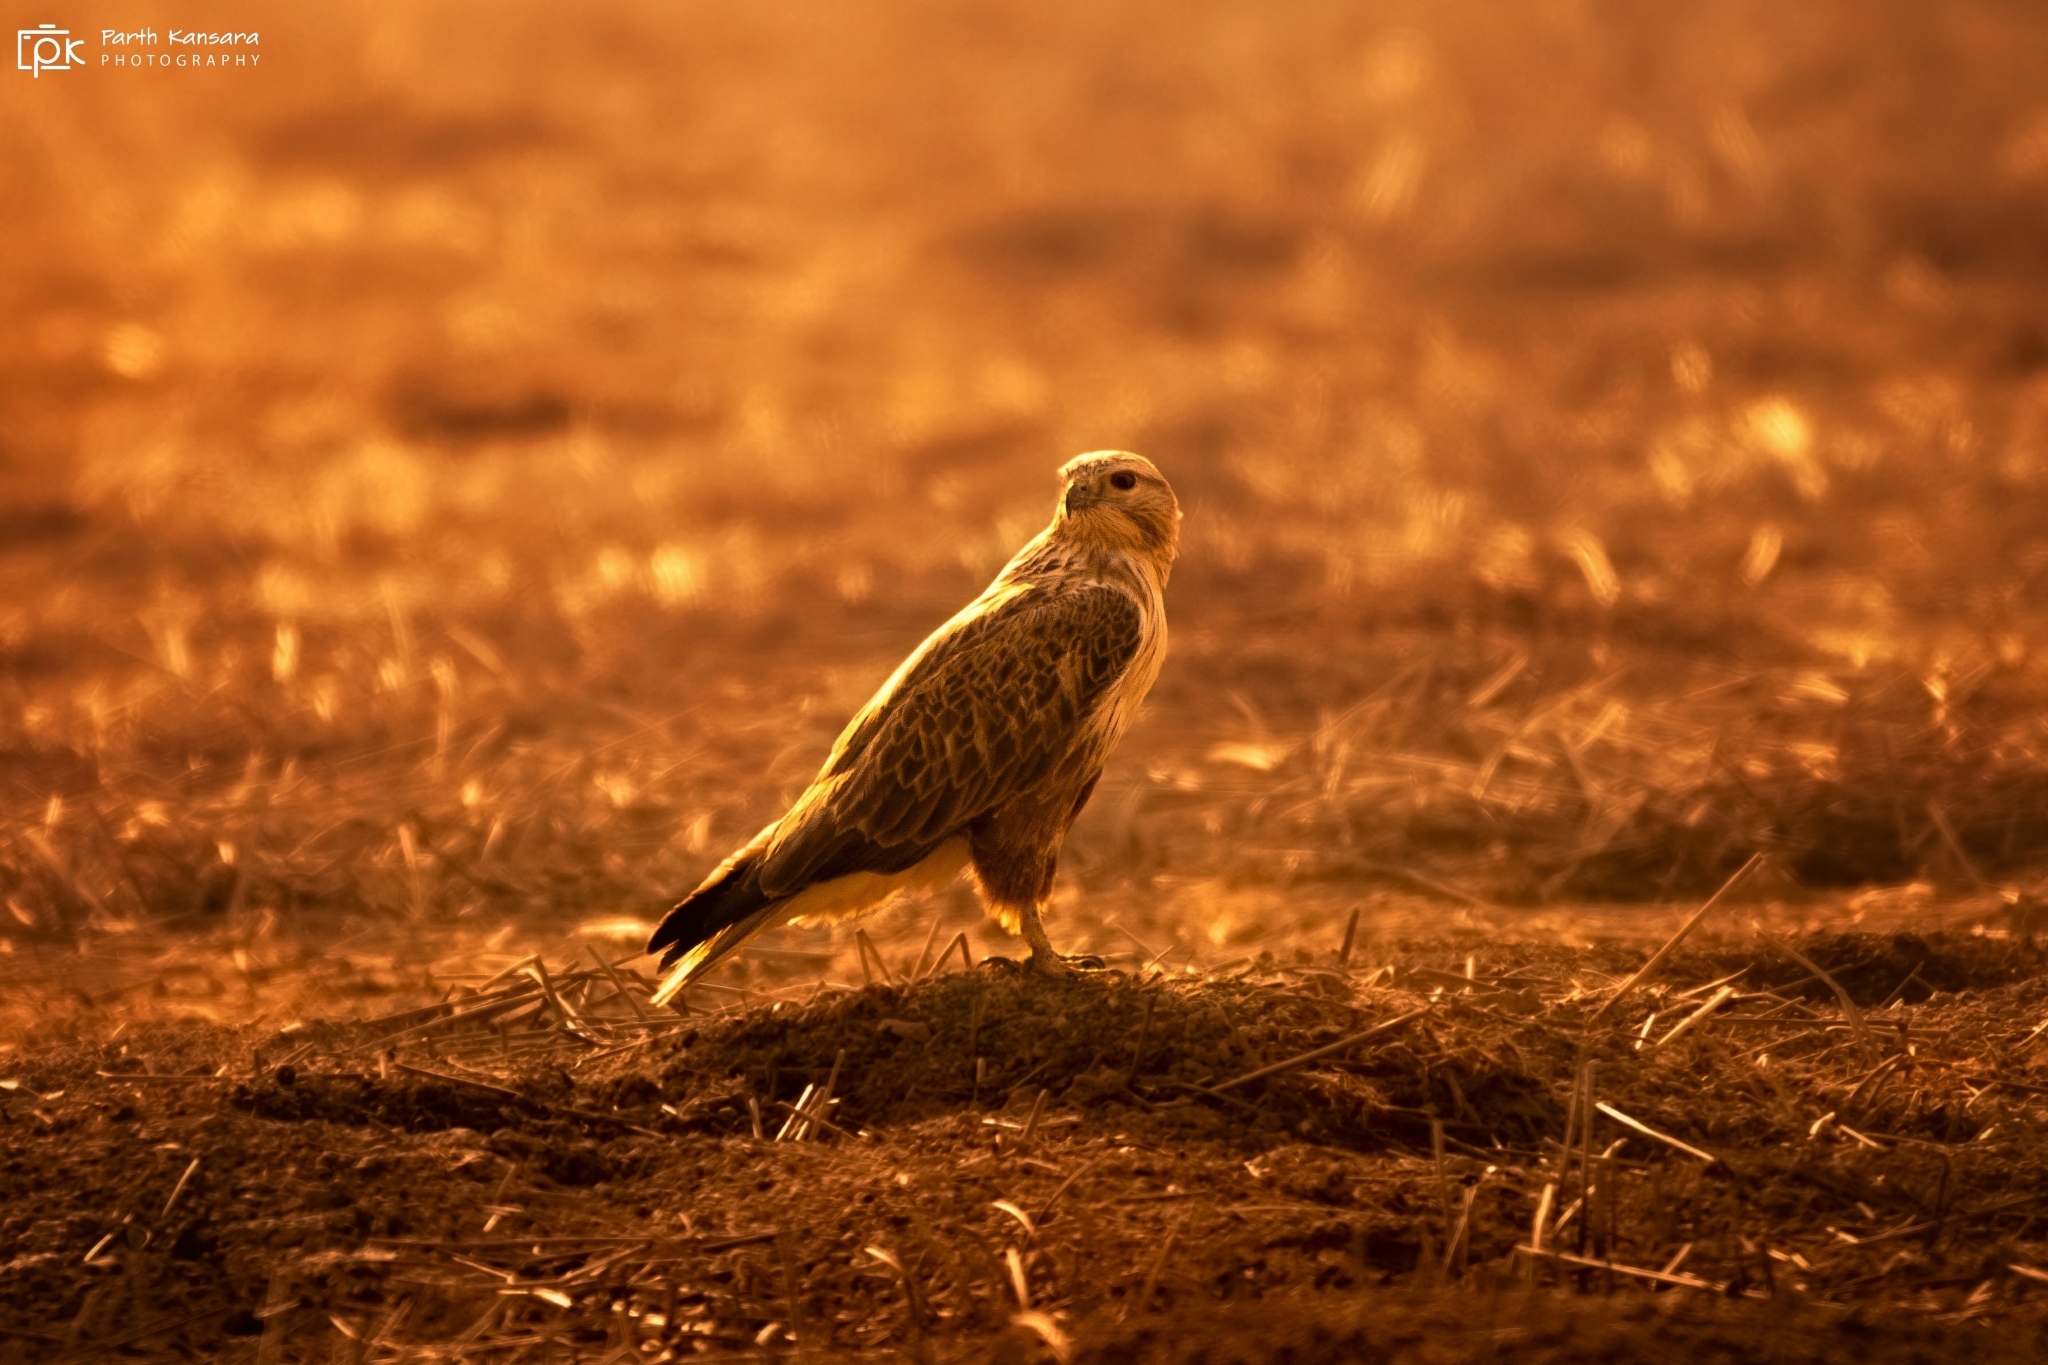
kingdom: Animalia
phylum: Chordata
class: Aves
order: Accipitriformes
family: Accipitridae
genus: Buteo
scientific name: Buteo rufinus
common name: Long-legged buzzard
